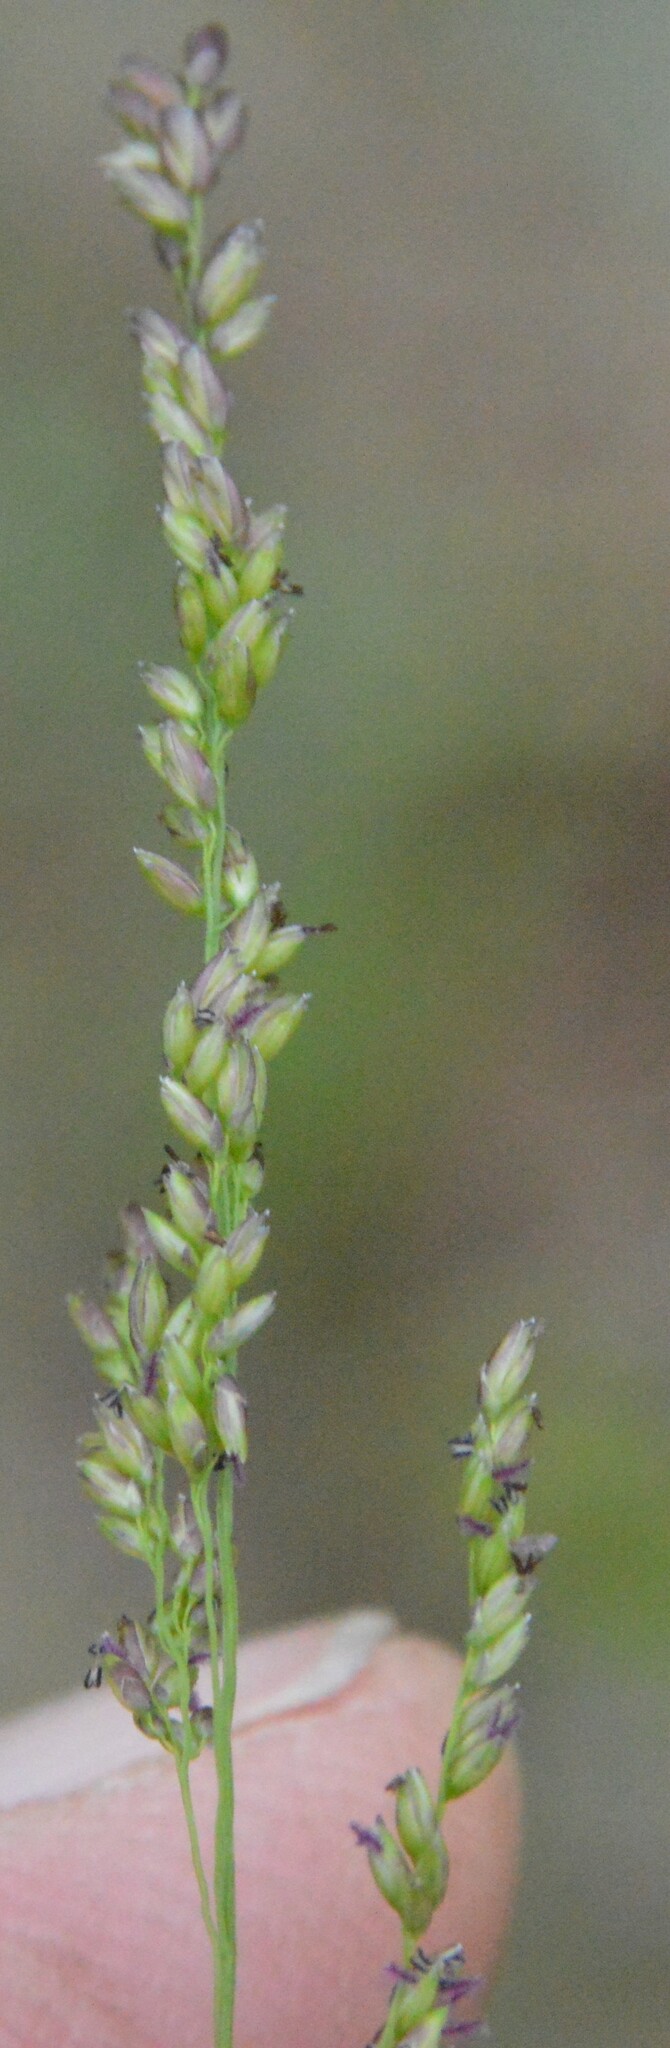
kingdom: Plantae
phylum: Tracheophyta
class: Liliopsida
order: Poales
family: Poaceae
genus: Steinchisma
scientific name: Steinchisma hians
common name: Gaping panic grass
